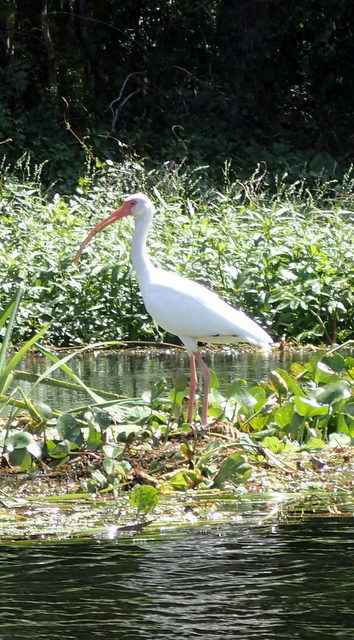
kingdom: Animalia
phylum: Chordata
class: Aves
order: Pelecaniformes
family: Threskiornithidae
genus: Eudocimus
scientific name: Eudocimus albus
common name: White ibis
